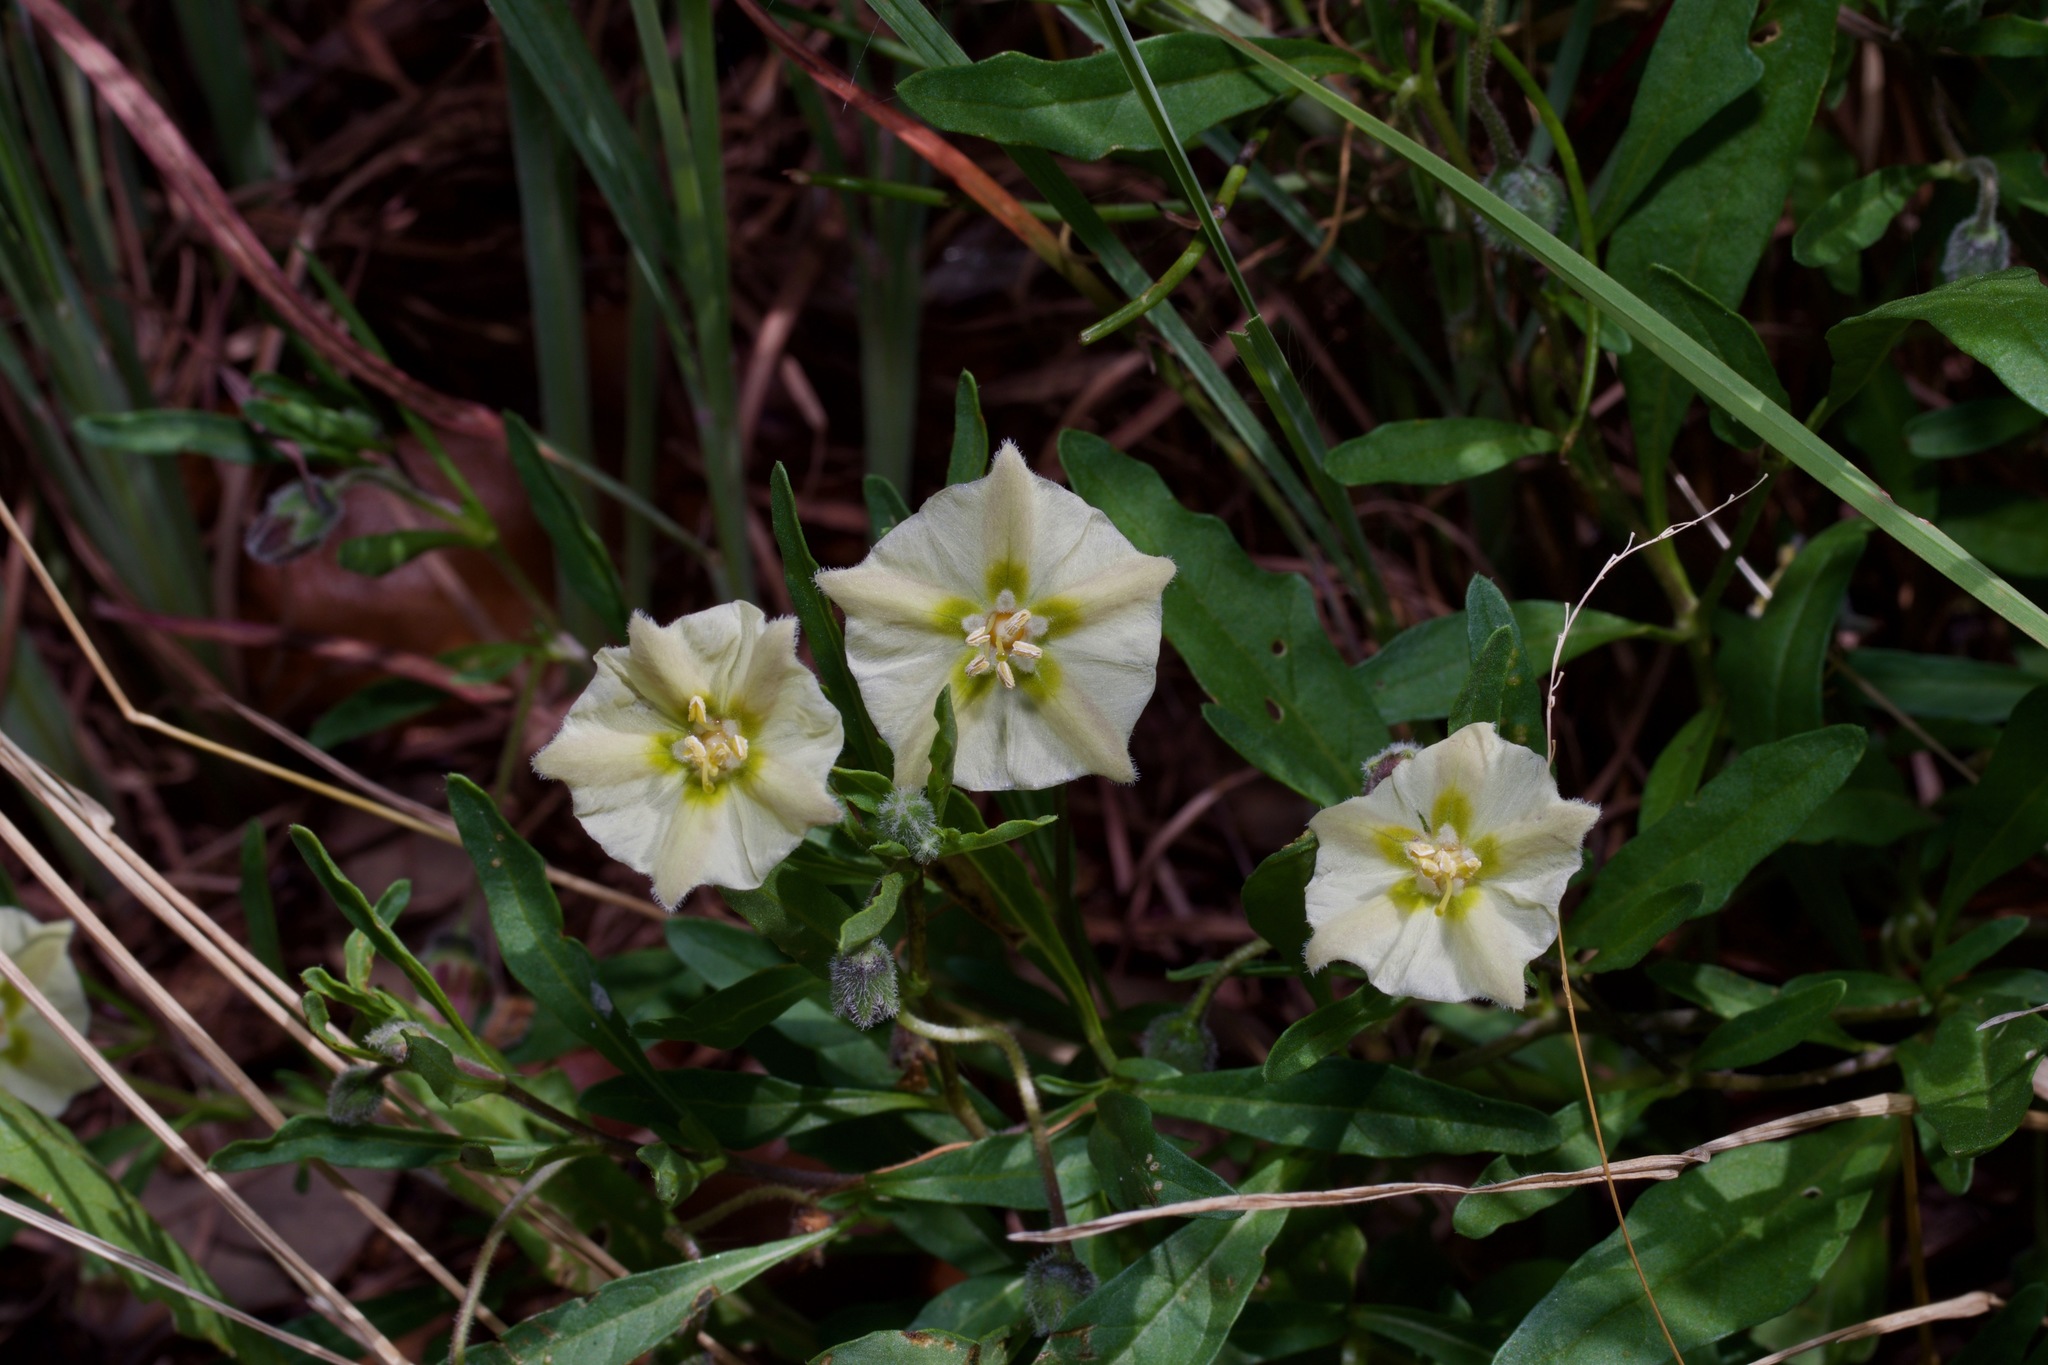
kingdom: Plantae
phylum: Tracheophyta
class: Magnoliopsida
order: Solanales
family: Solanaceae
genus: Chamaesaracha
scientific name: Chamaesaracha edwardsiana
